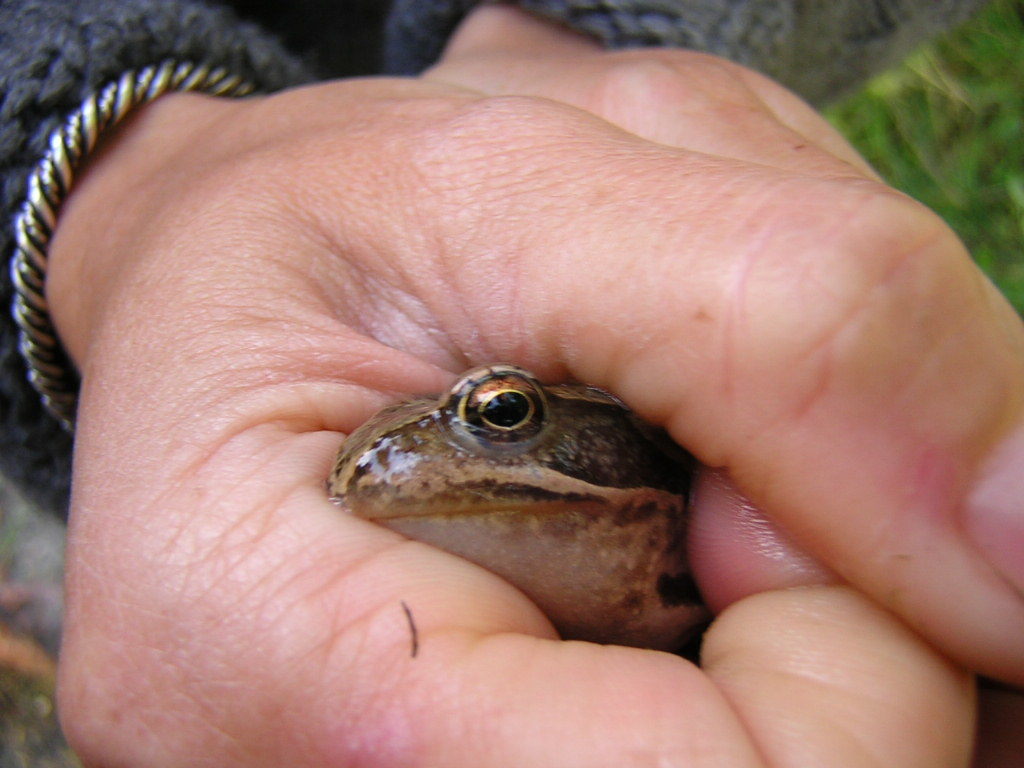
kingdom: Animalia
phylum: Chordata
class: Amphibia
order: Anura
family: Ranidae
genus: Rana
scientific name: Rana temporaria
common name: Common frog
